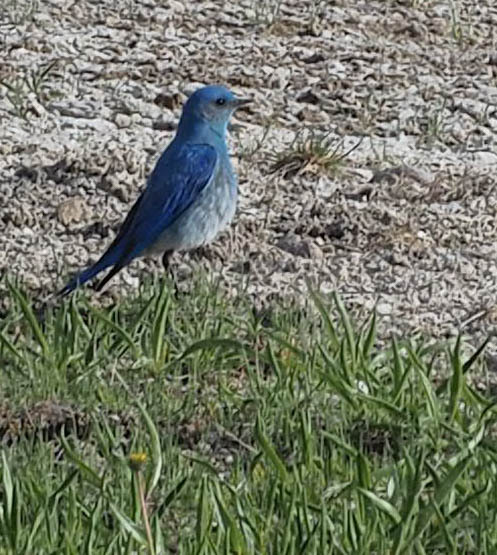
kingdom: Animalia
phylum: Chordata
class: Aves
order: Passeriformes
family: Turdidae
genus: Sialia
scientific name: Sialia currucoides
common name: Mountain bluebird
